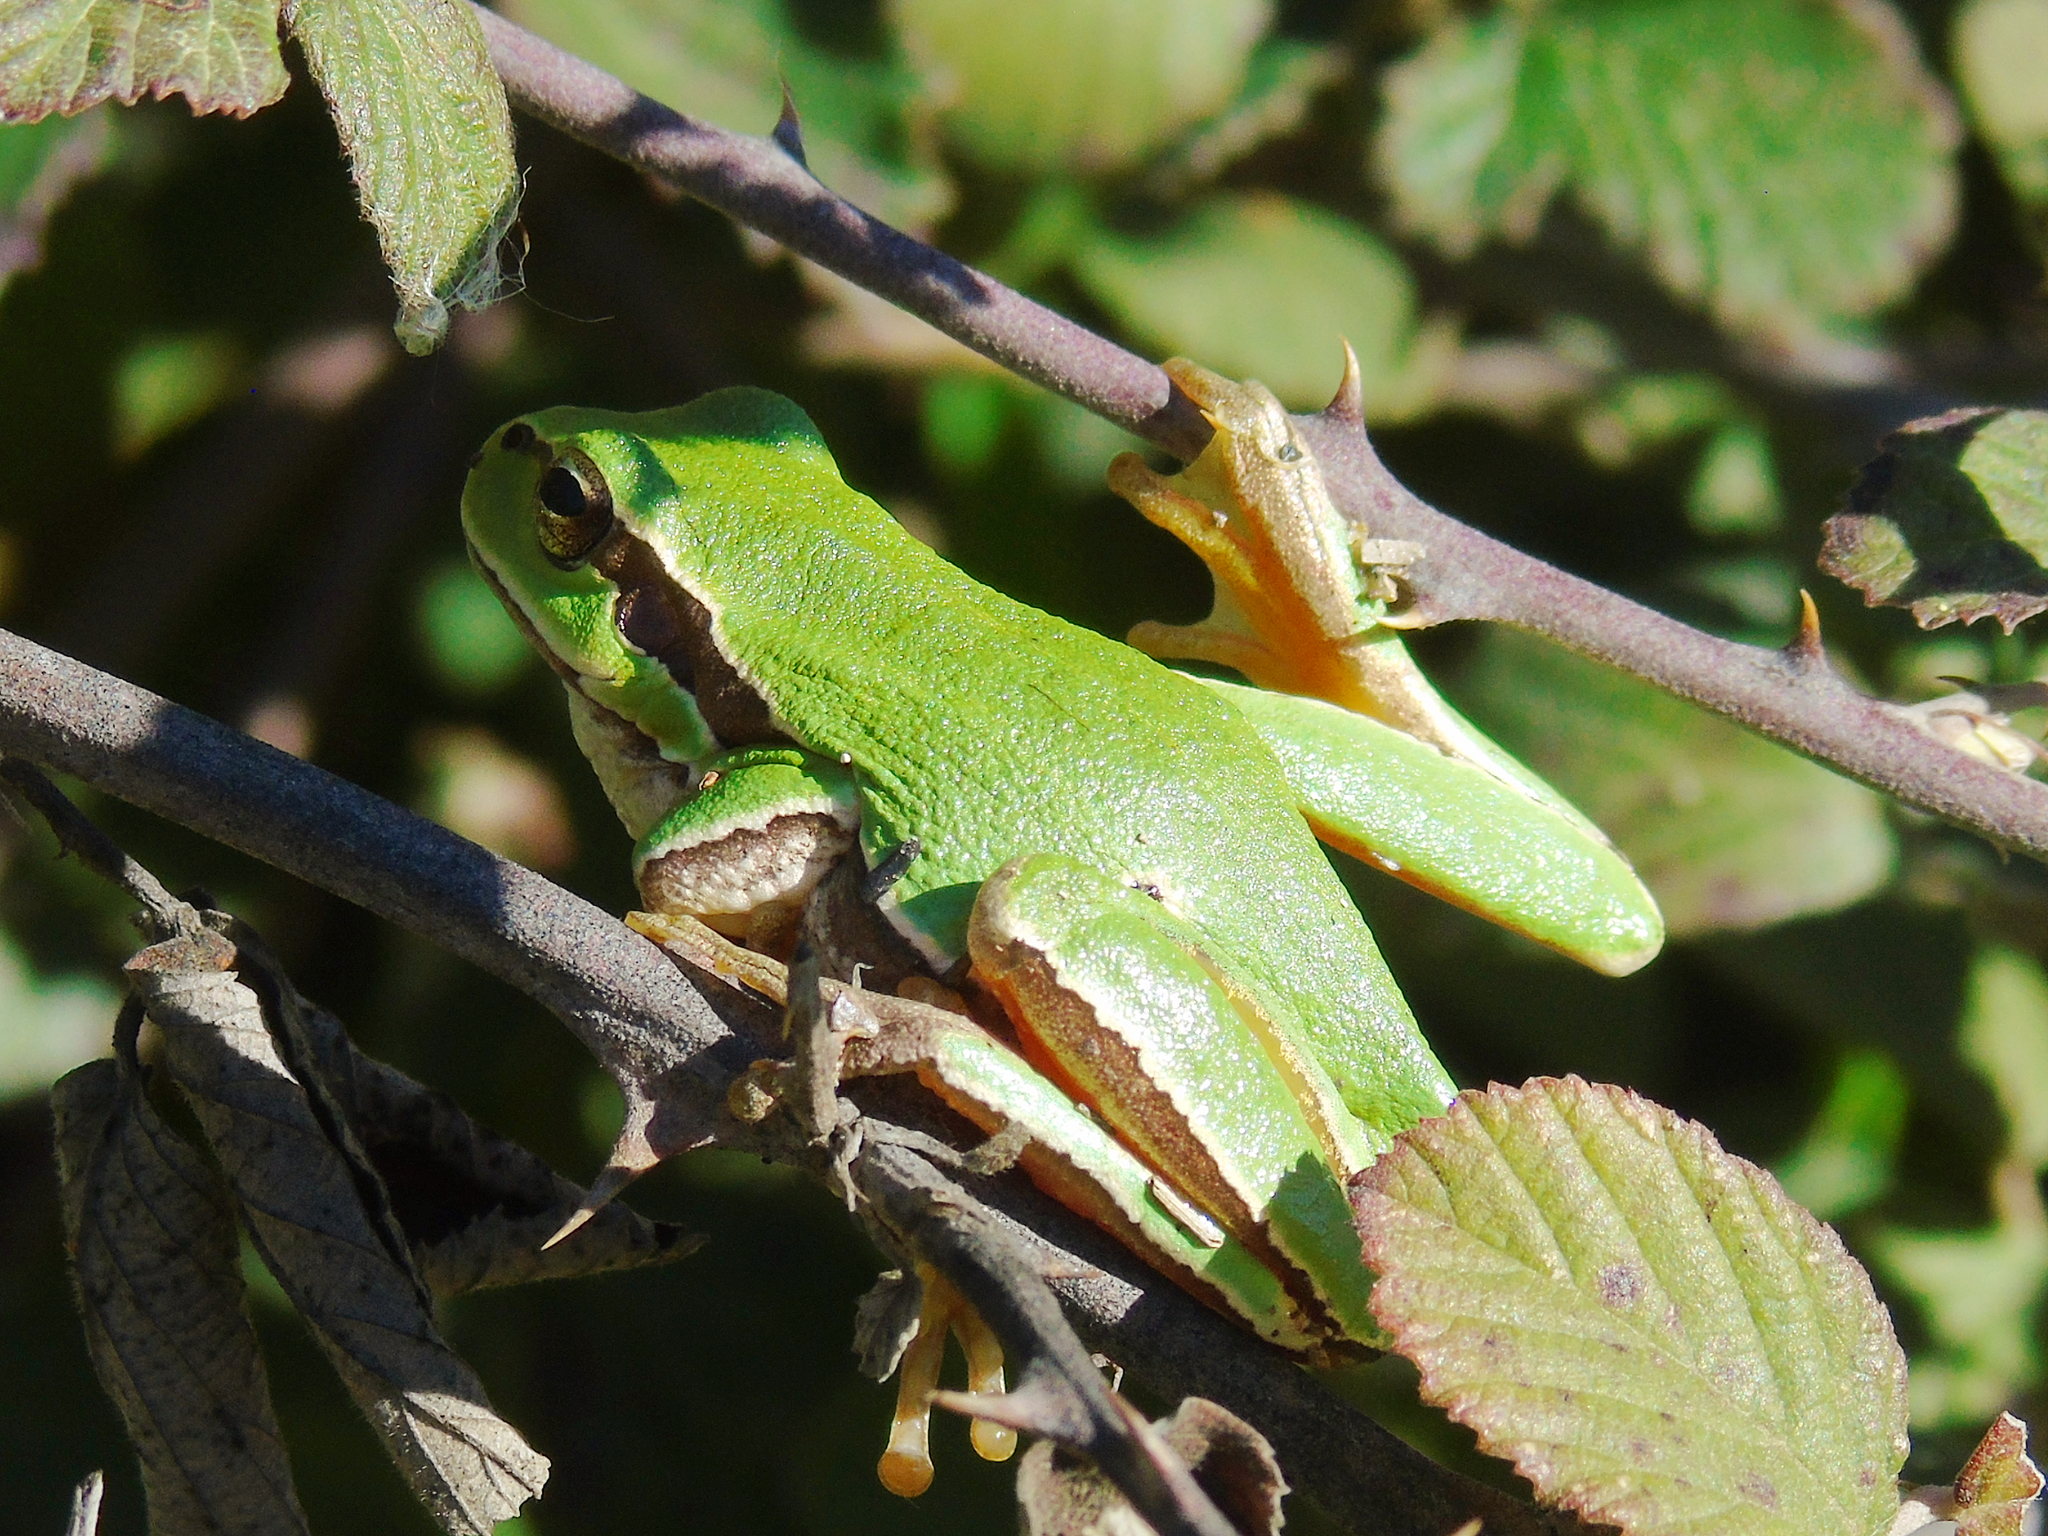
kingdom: Animalia
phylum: Chordata
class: Amphibia
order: Anura
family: Hylidae
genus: Hyla
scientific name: Hyla orientalis
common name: Caucasian treefrog
